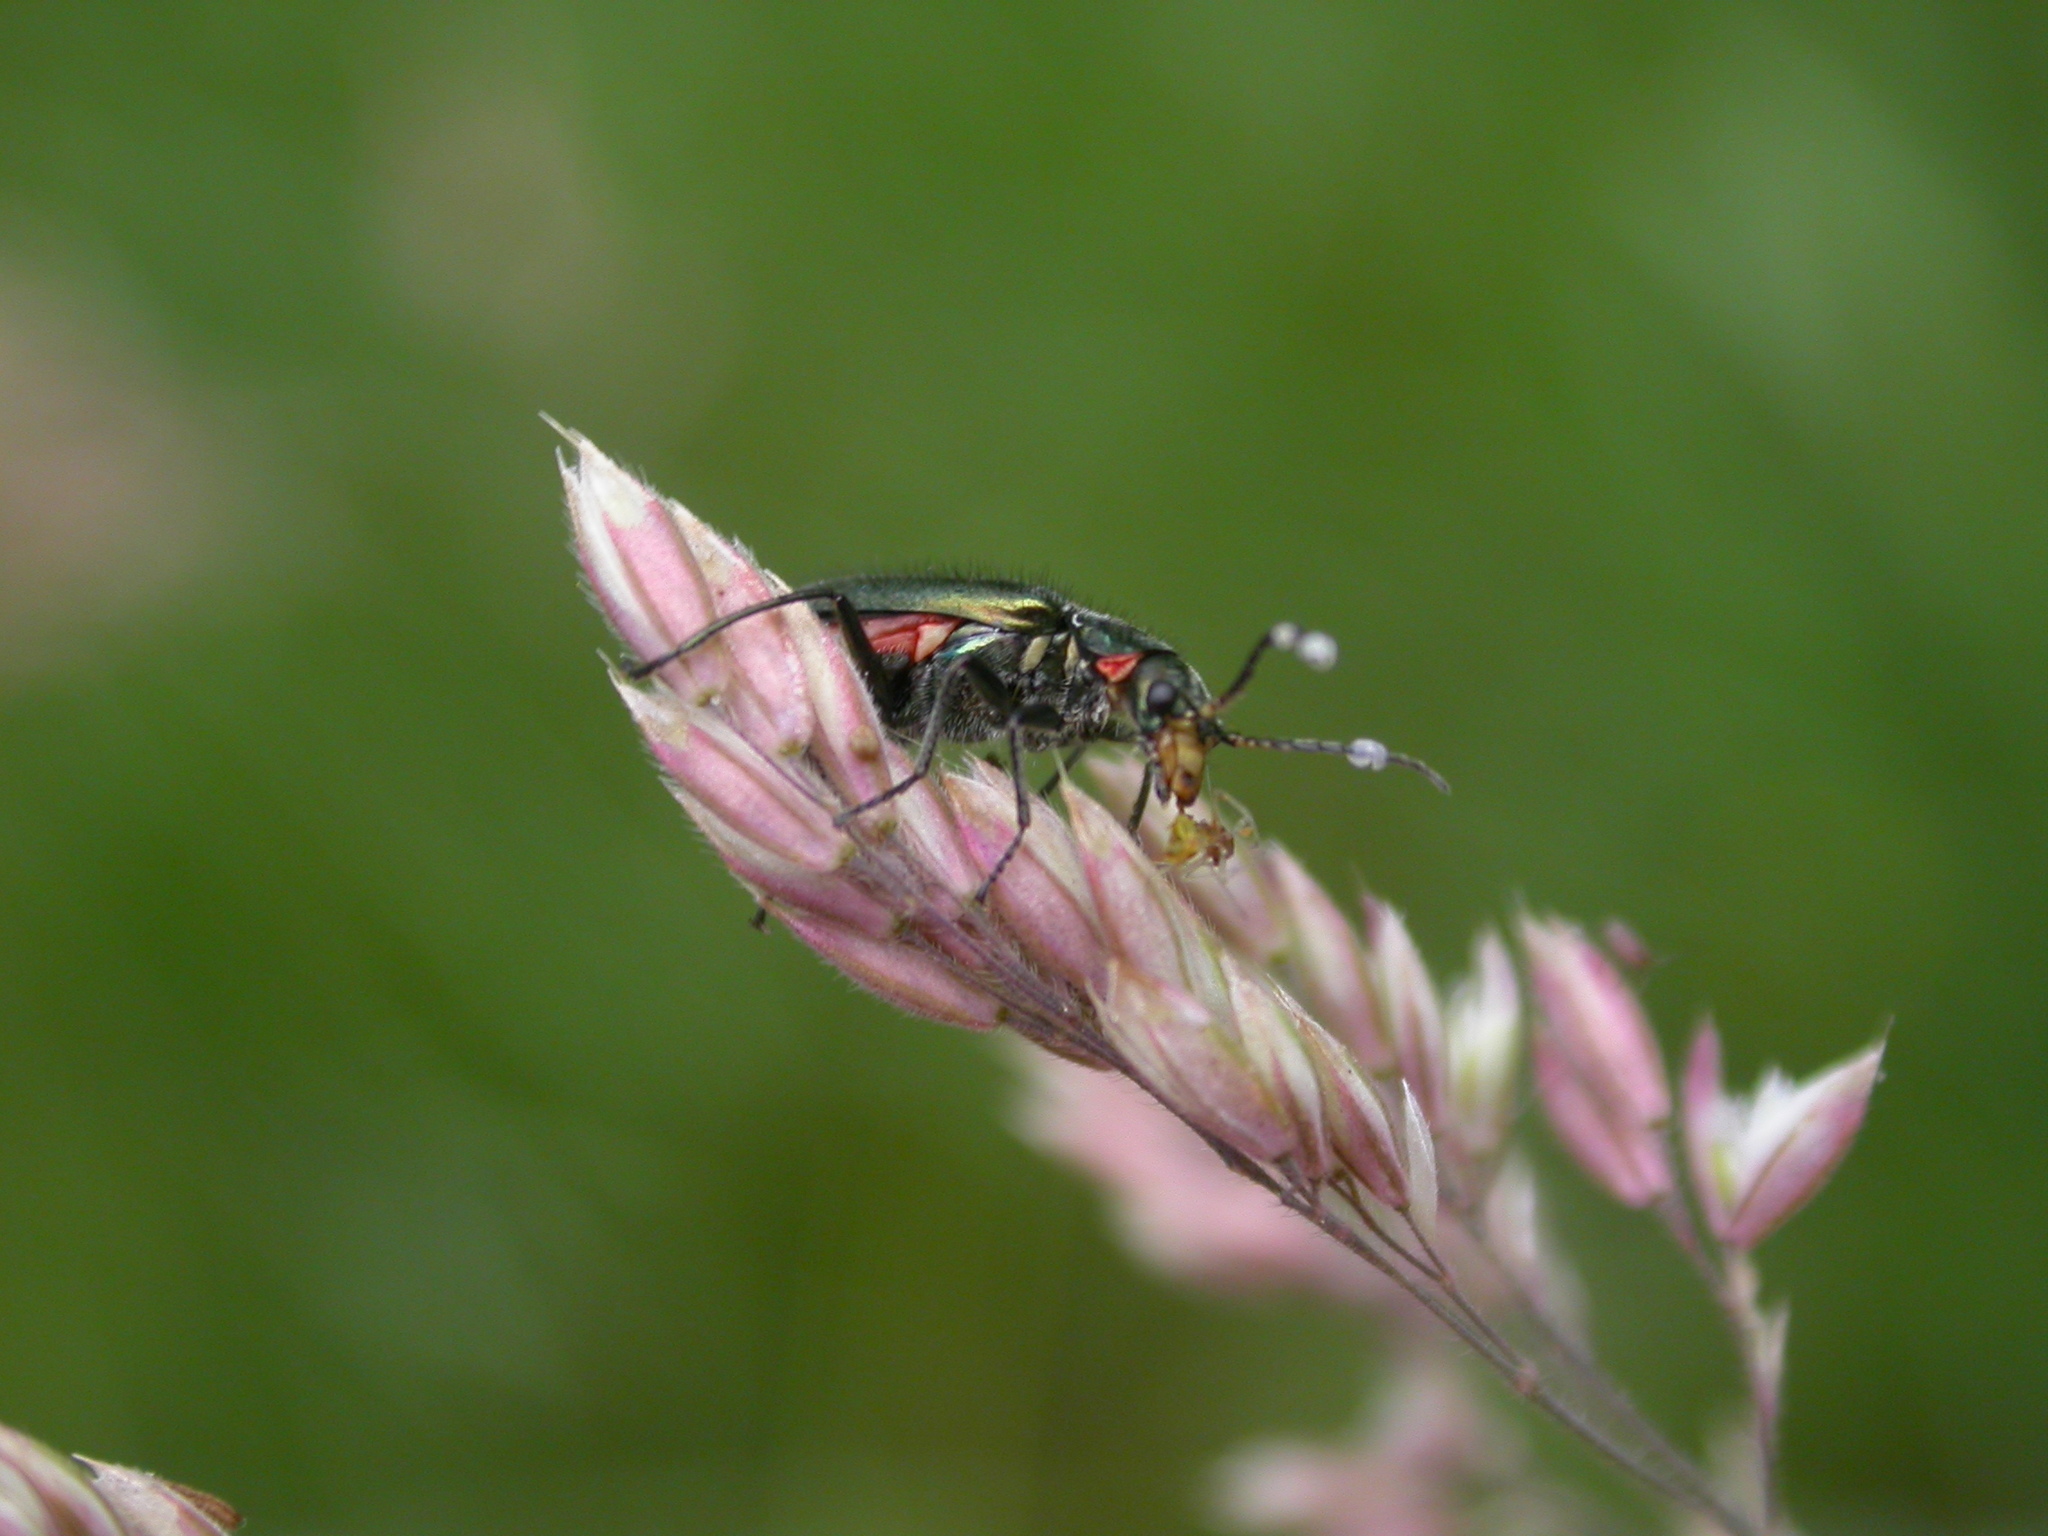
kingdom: Animalia
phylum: Arthropoda
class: Insecta
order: Coleoptera
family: Melyridae
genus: Malachius
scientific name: Malachius bipustulatus
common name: Malachite beetle
